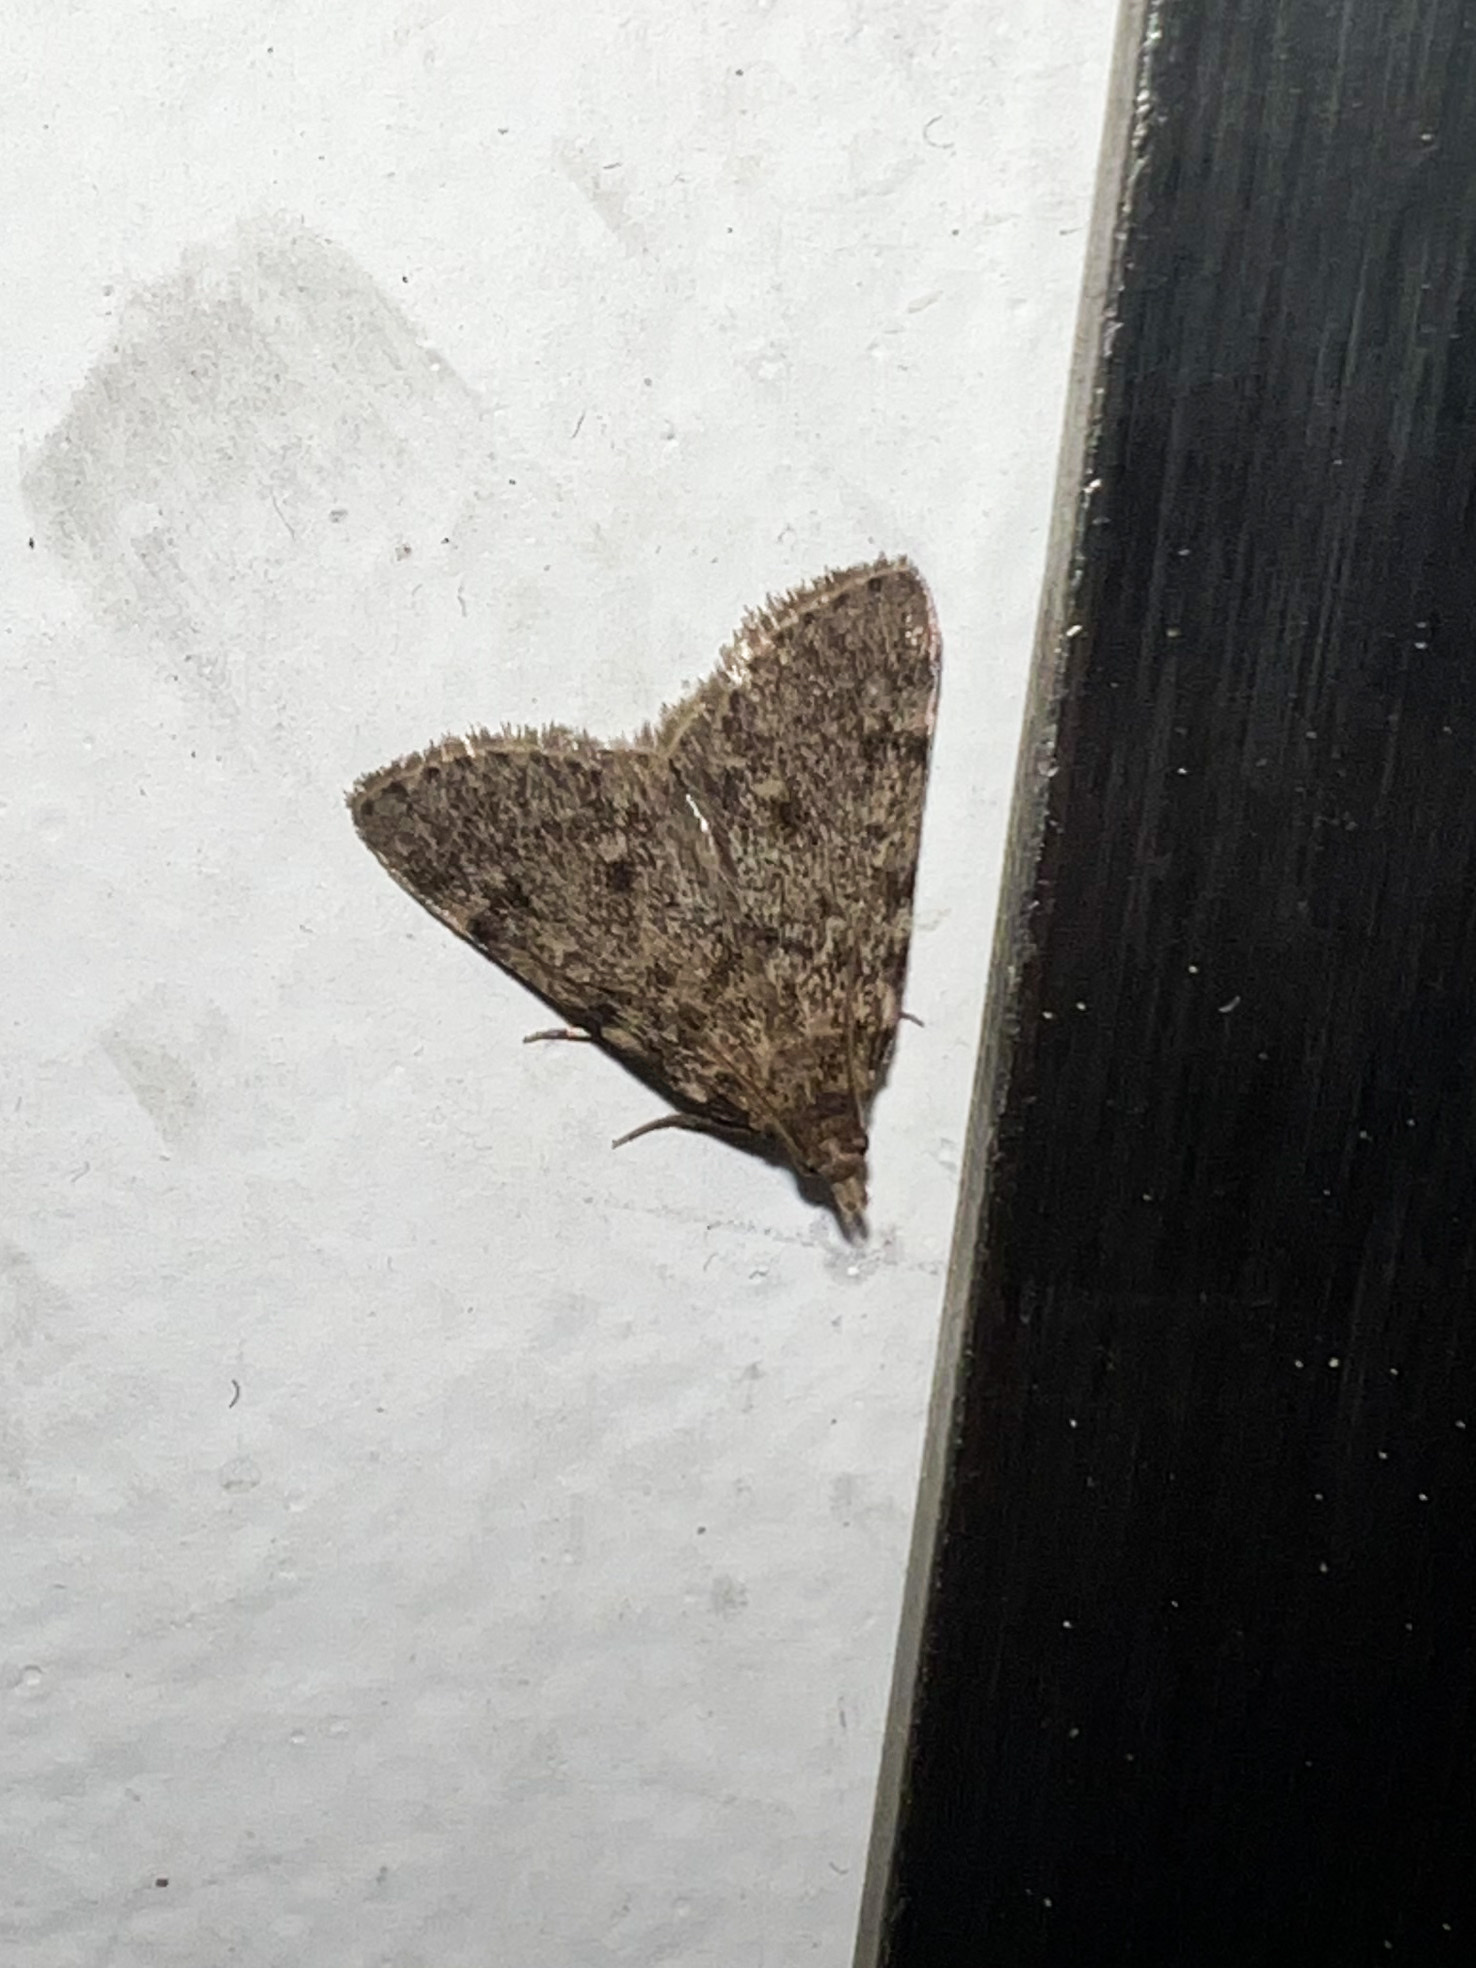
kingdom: Animalia
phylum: Arthropoda
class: Insecta
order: Lepidoptera
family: Pyralidae
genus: Aglossa
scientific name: Aglossa pinguinalis
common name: Large tabby
